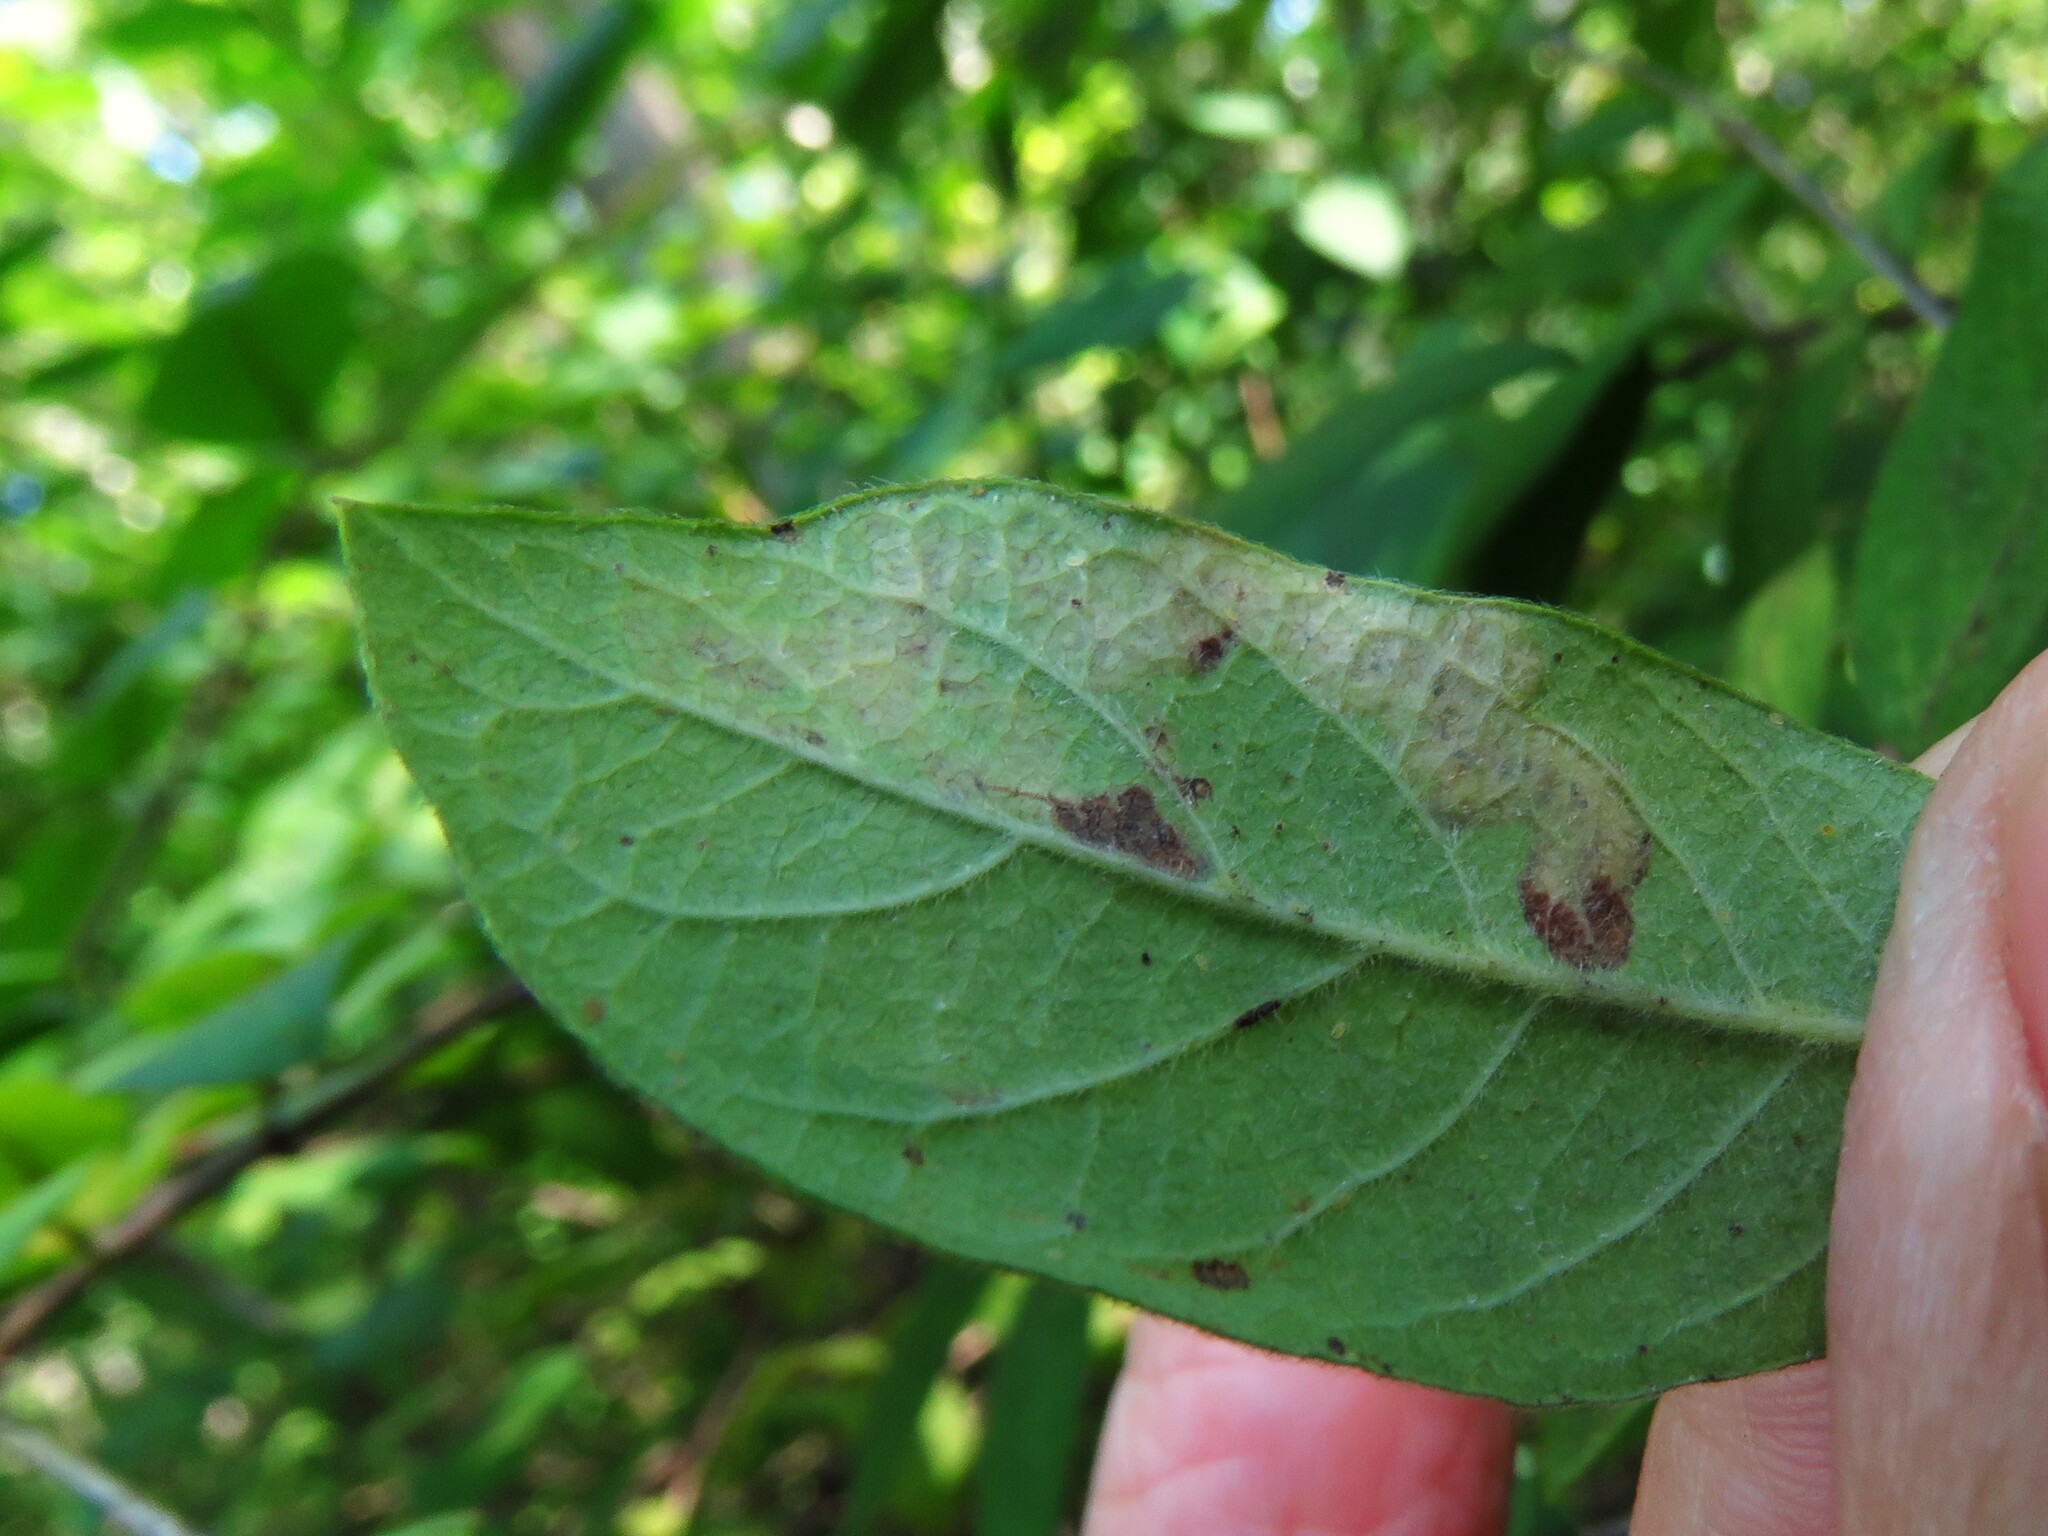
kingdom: Animalia
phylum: Arthropoda
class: Insecta
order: Diptera
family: Agromyzidae
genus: Aulagromyza
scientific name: Aulagromyza luteoscutellata
